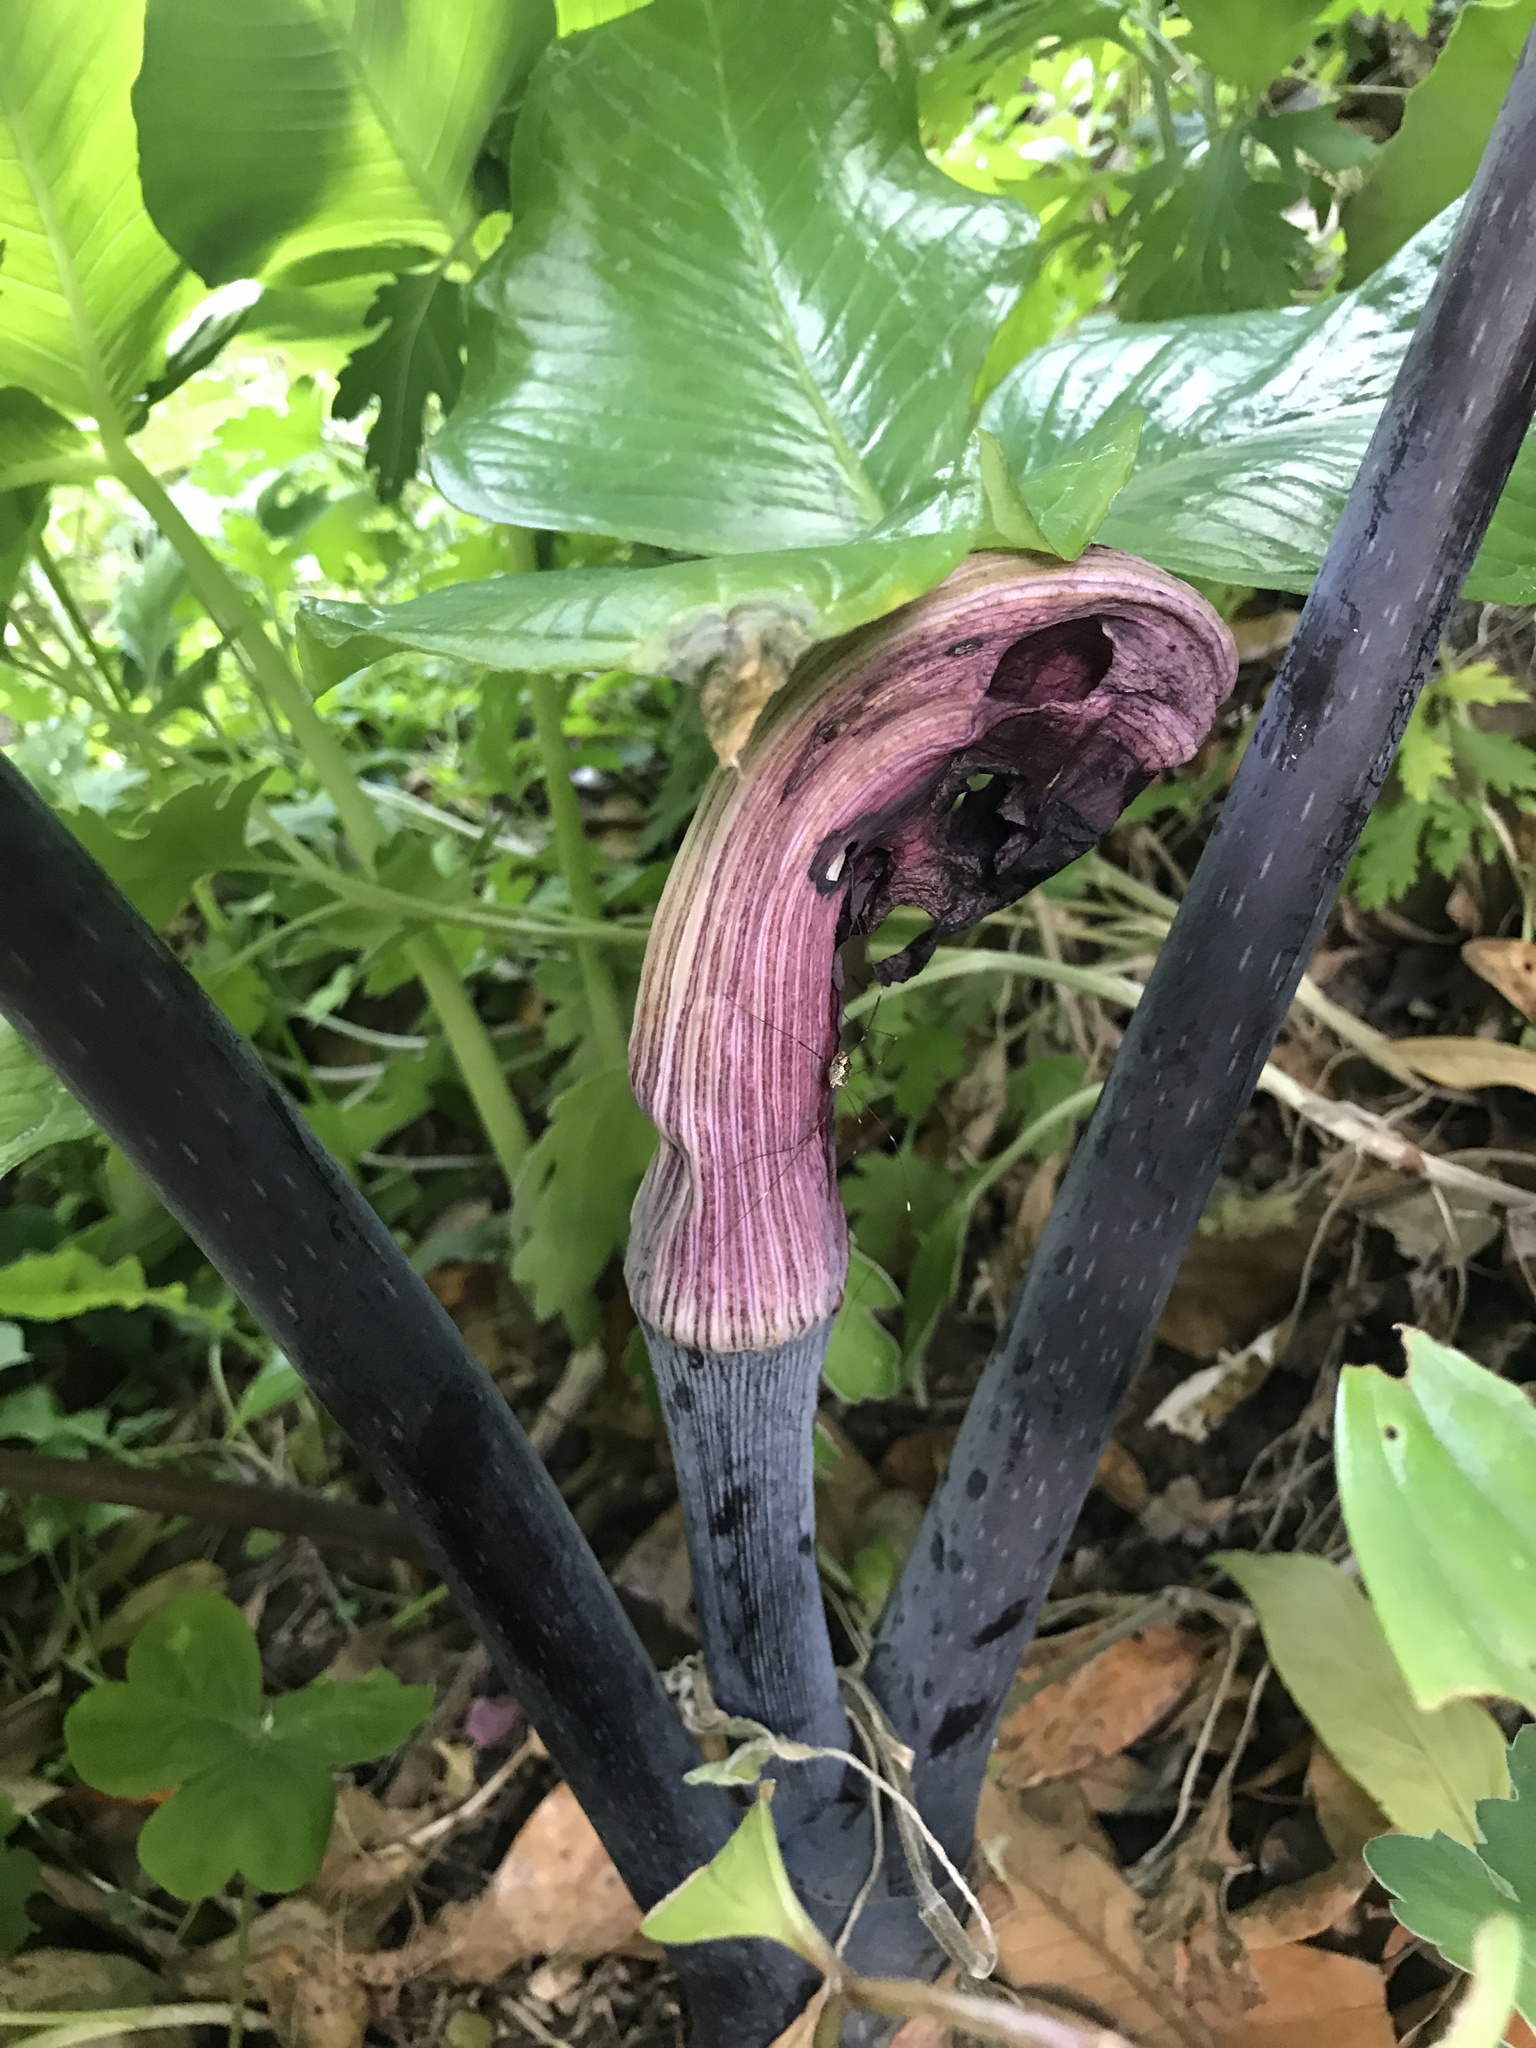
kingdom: Plantae
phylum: Tracheophyta
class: Liliopsida
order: Alismatales
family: Araceae
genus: Arisaema
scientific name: Arisaema ringens
